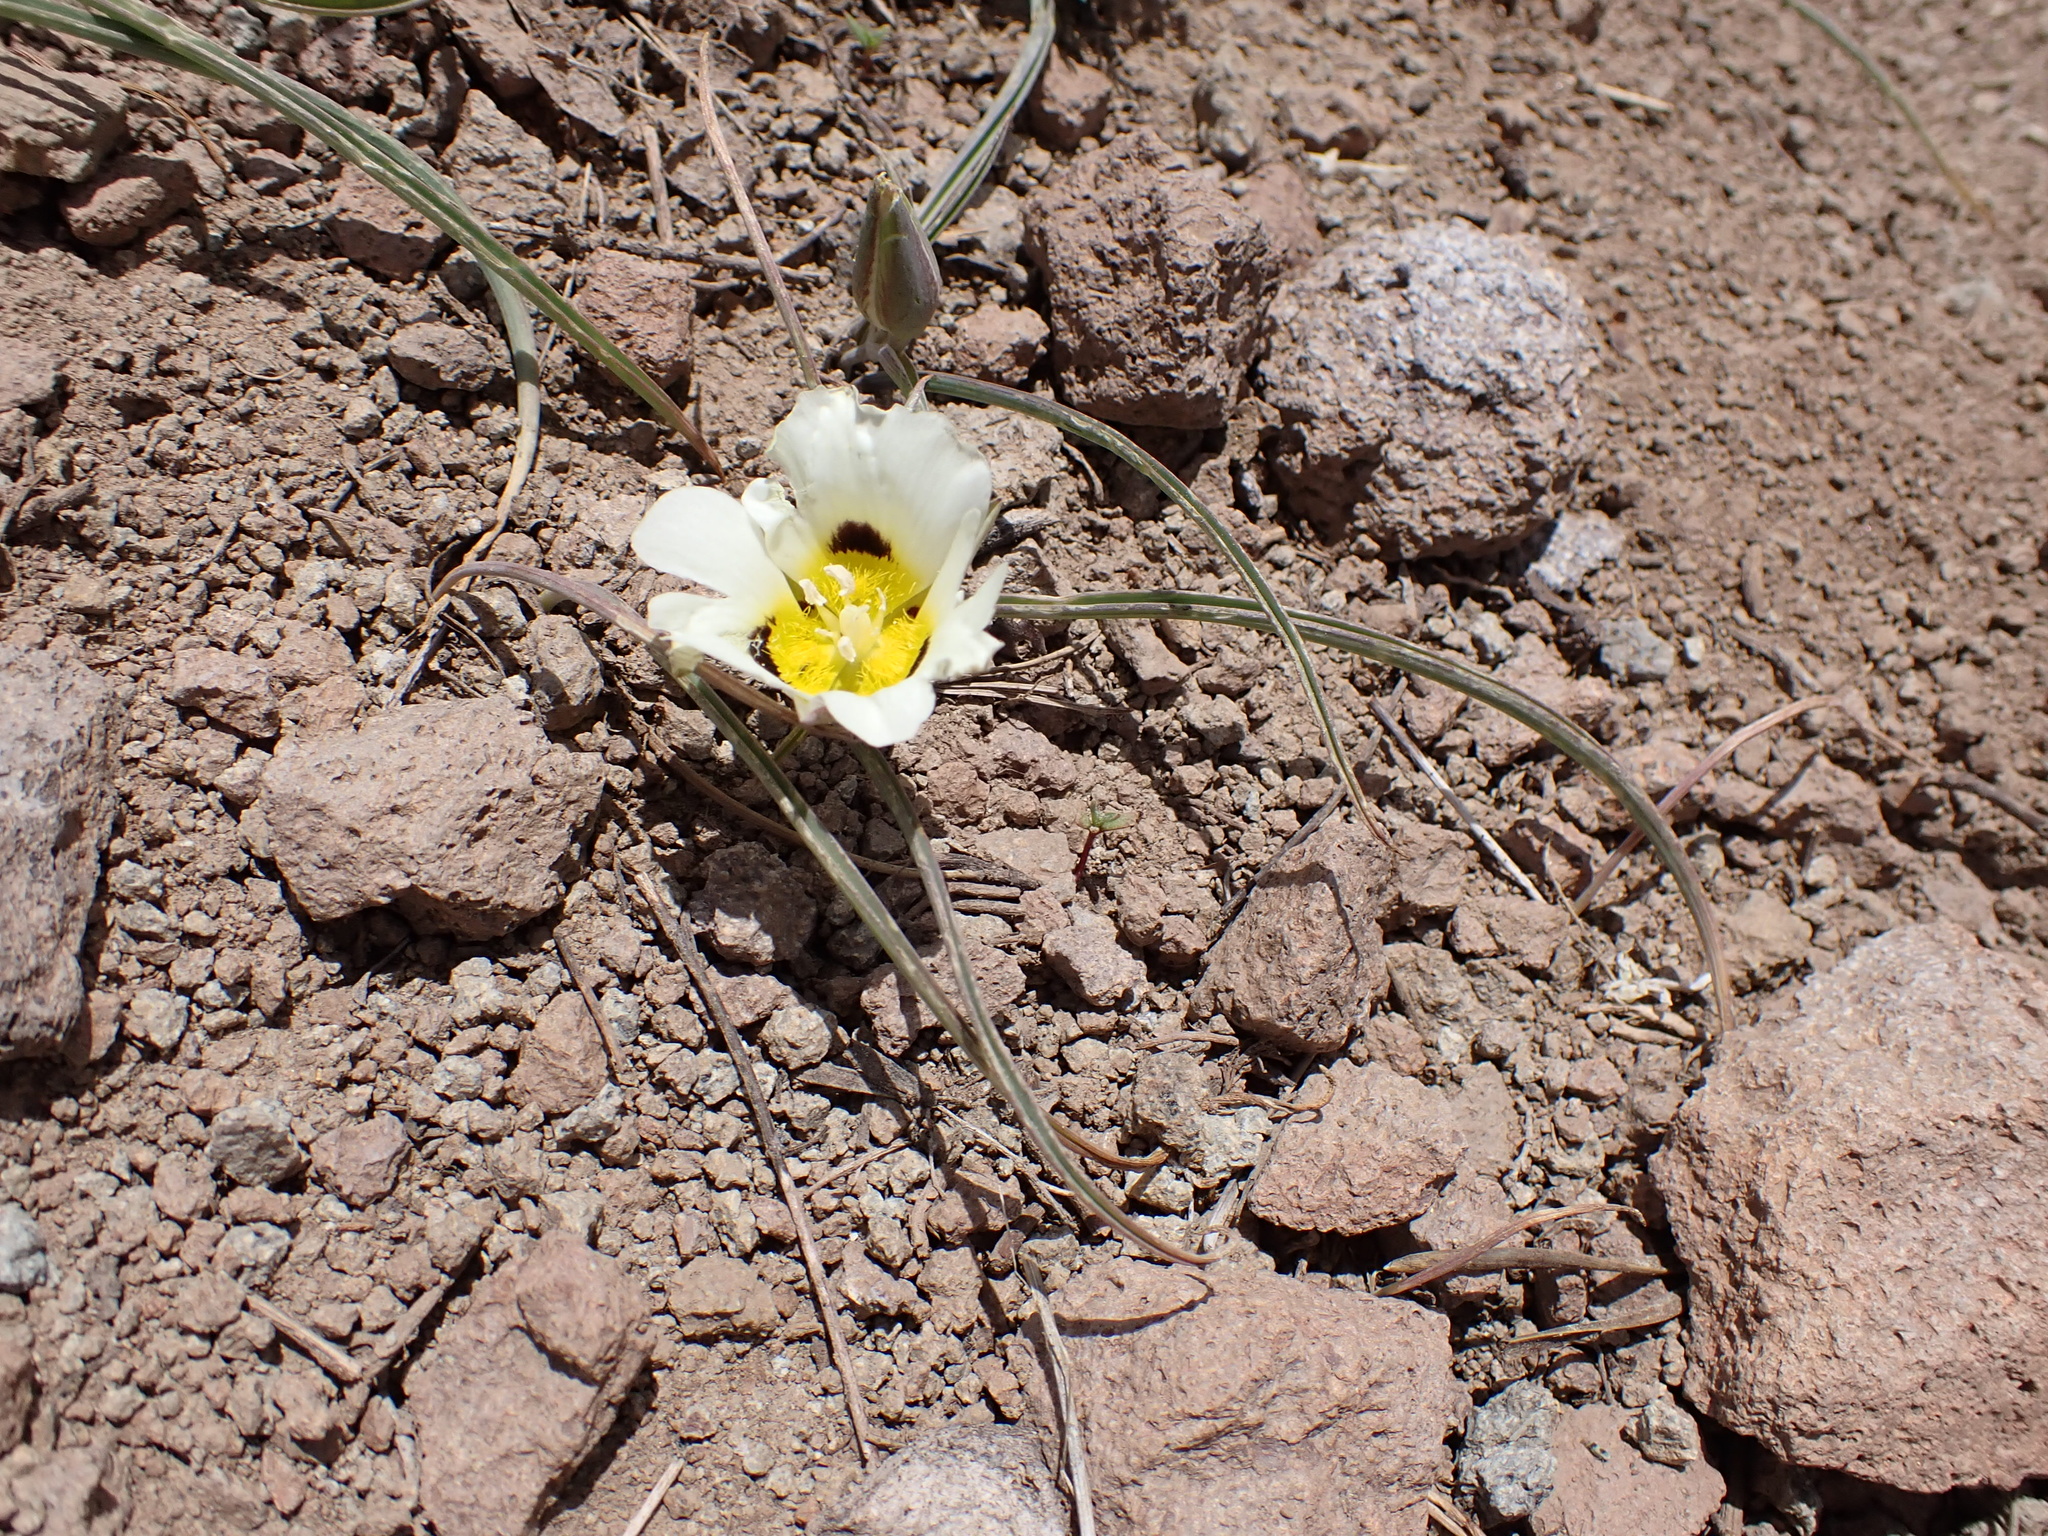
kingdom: Plantae
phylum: Tracheophyta
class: Liliopsida
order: Liliales
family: Liliaceae
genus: Calochortus
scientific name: Calochortus leichtlinii
